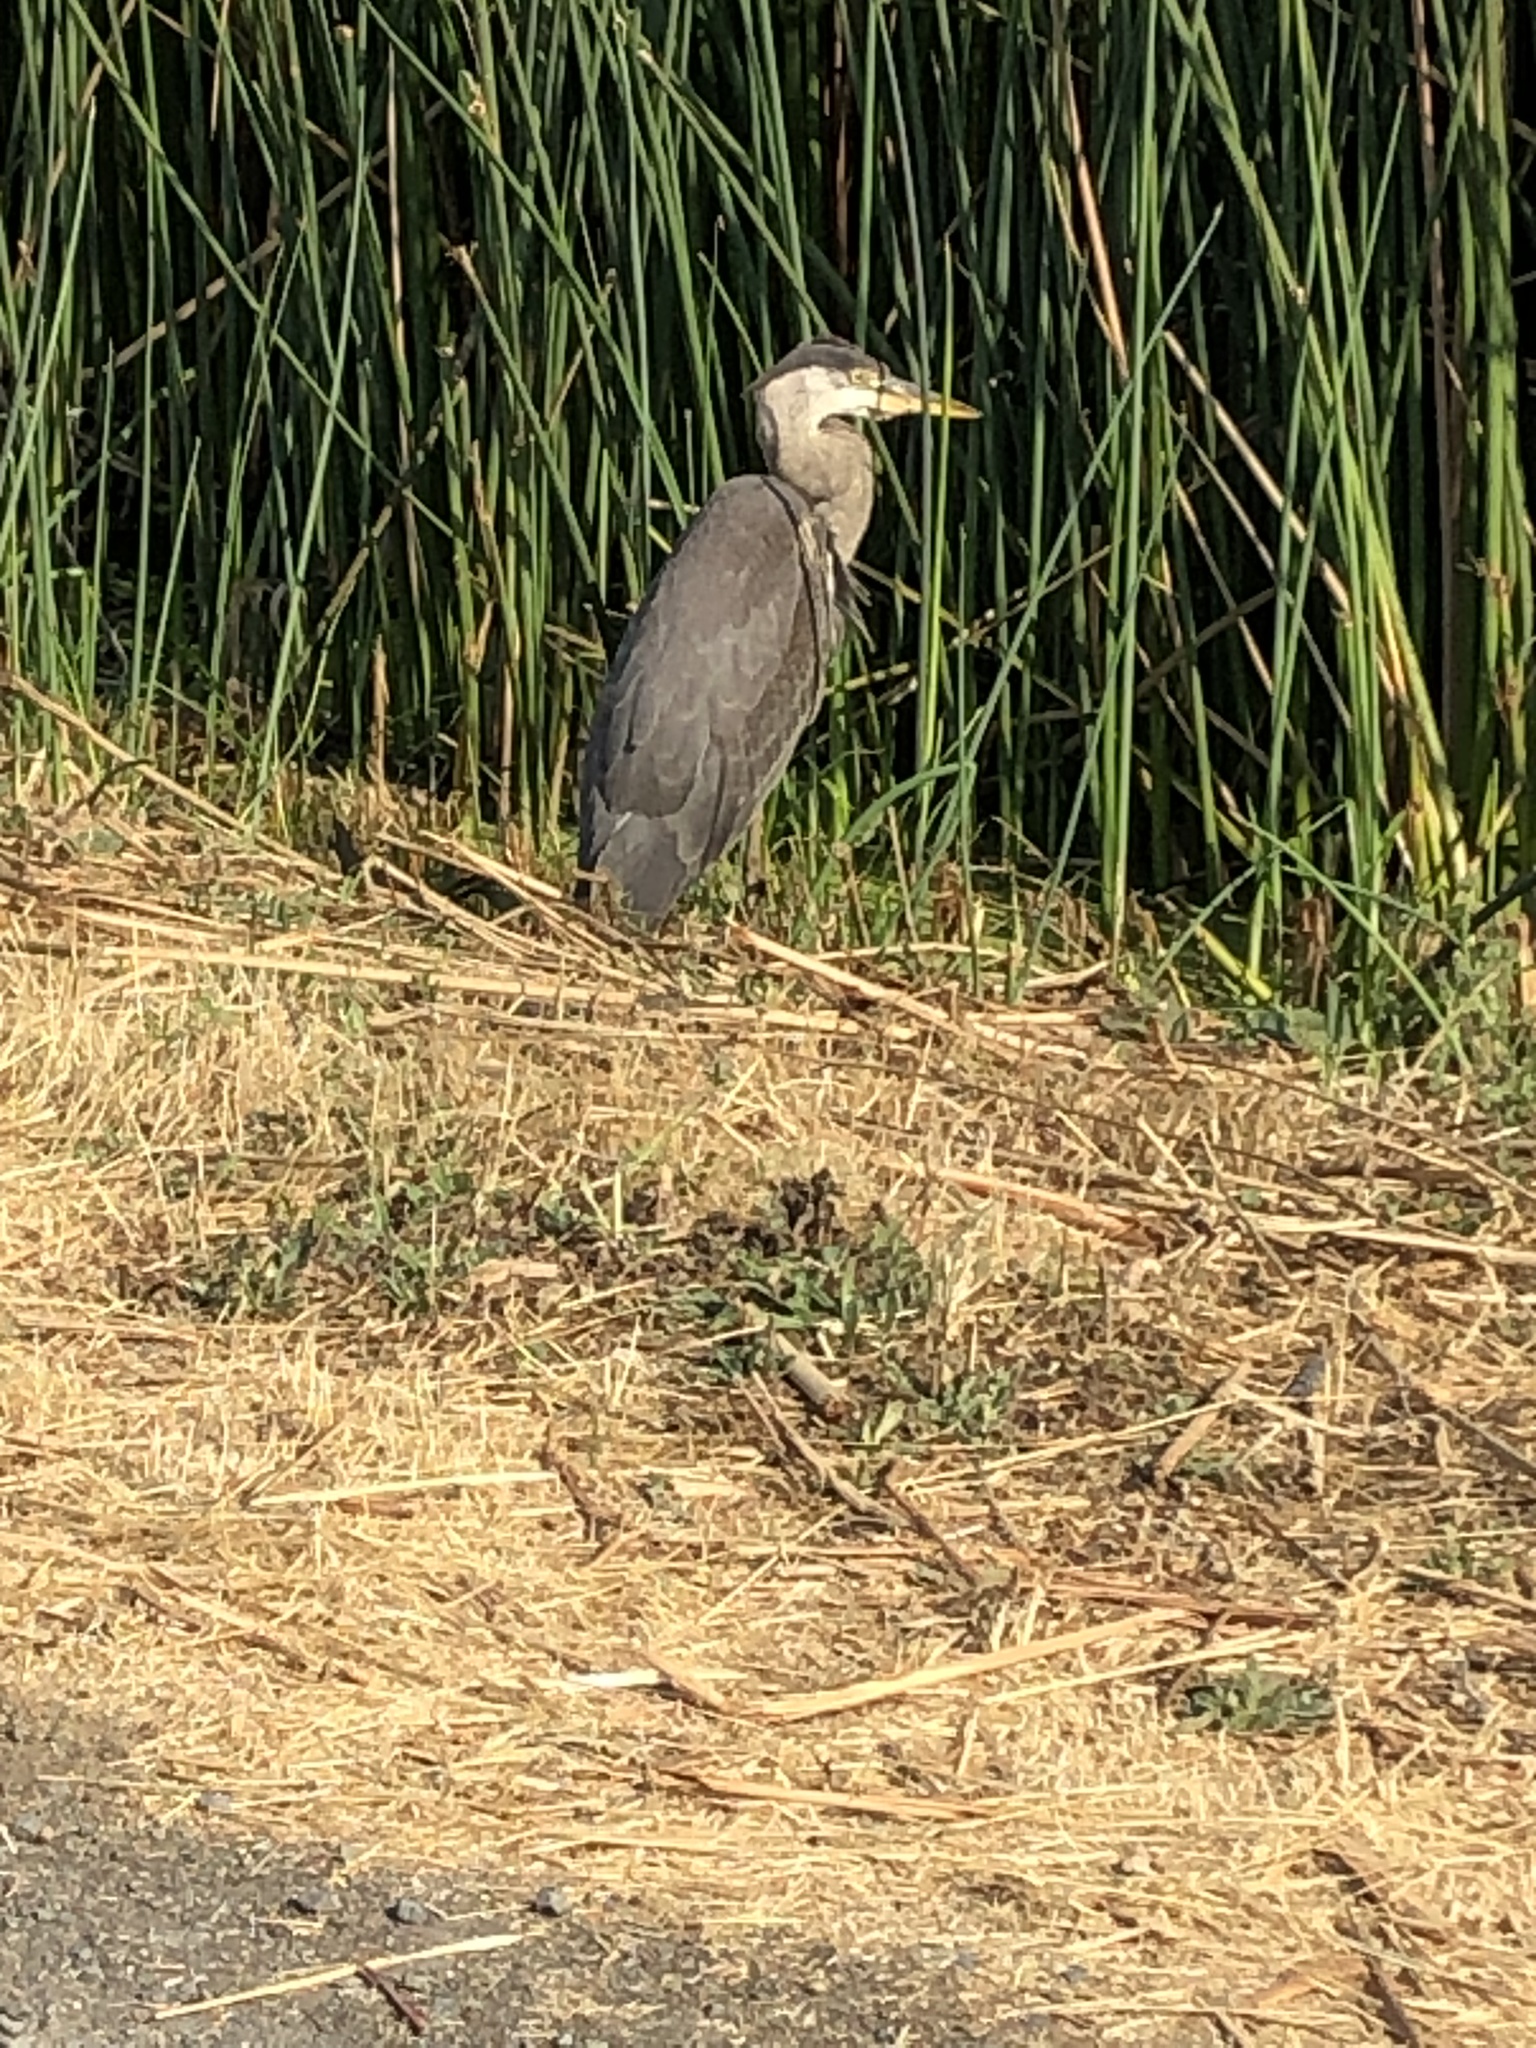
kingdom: Animalia
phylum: Chordata
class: Aves
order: Pelecaniformes
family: Ardeidae
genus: Ardea
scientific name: Ardea herodias
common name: Great blue heron
